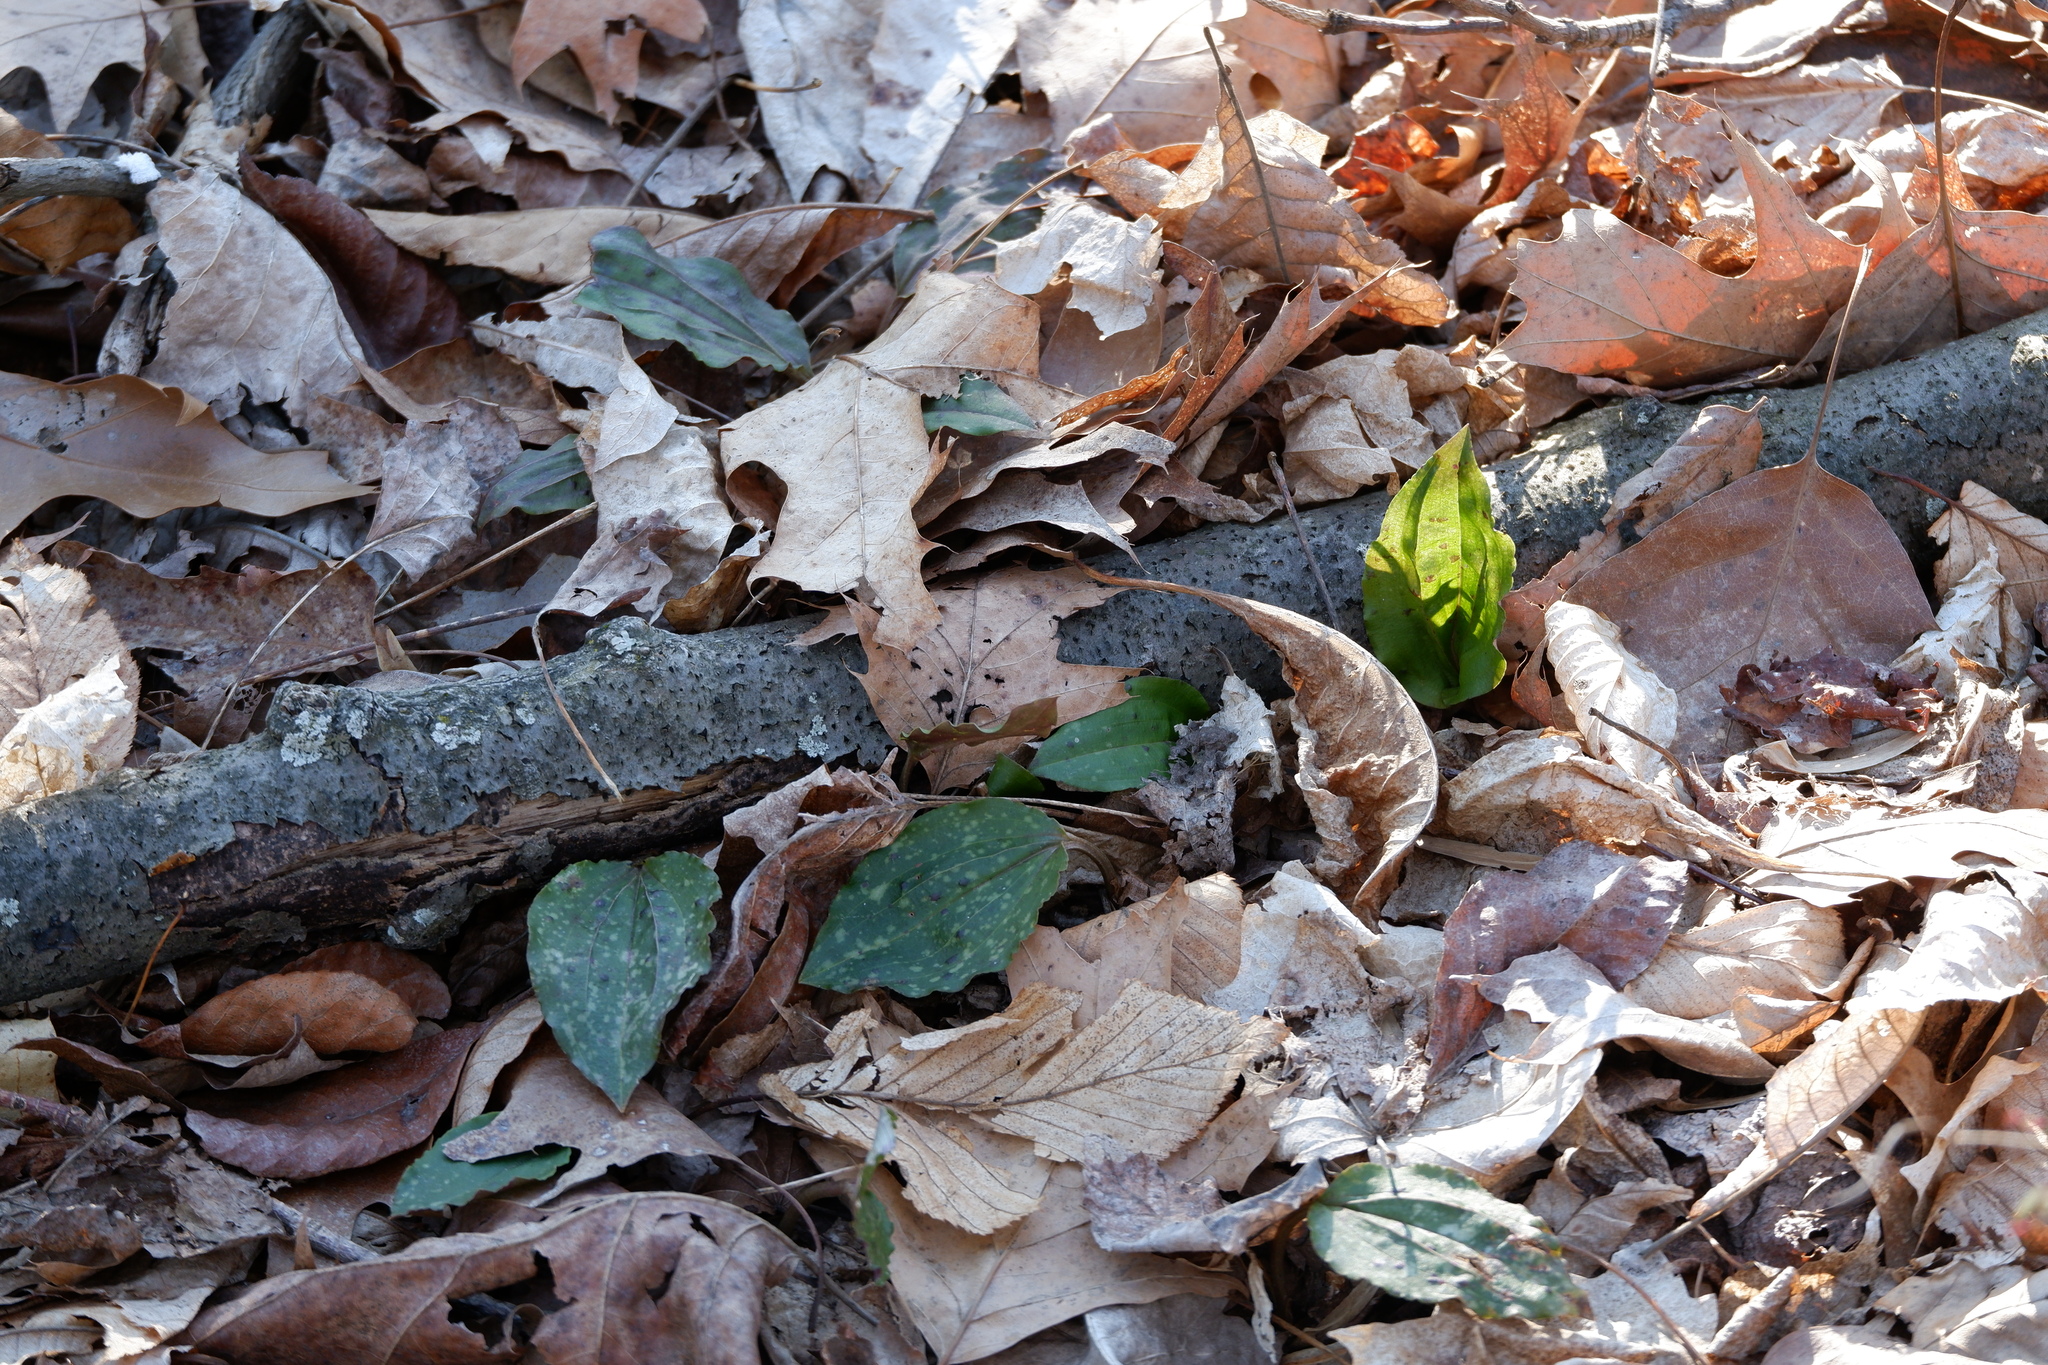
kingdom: Plantae
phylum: Tracheophyta
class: Liliopsida
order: Asparagales
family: Orchidaceae
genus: Tipularia
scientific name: Tipularia discolor
